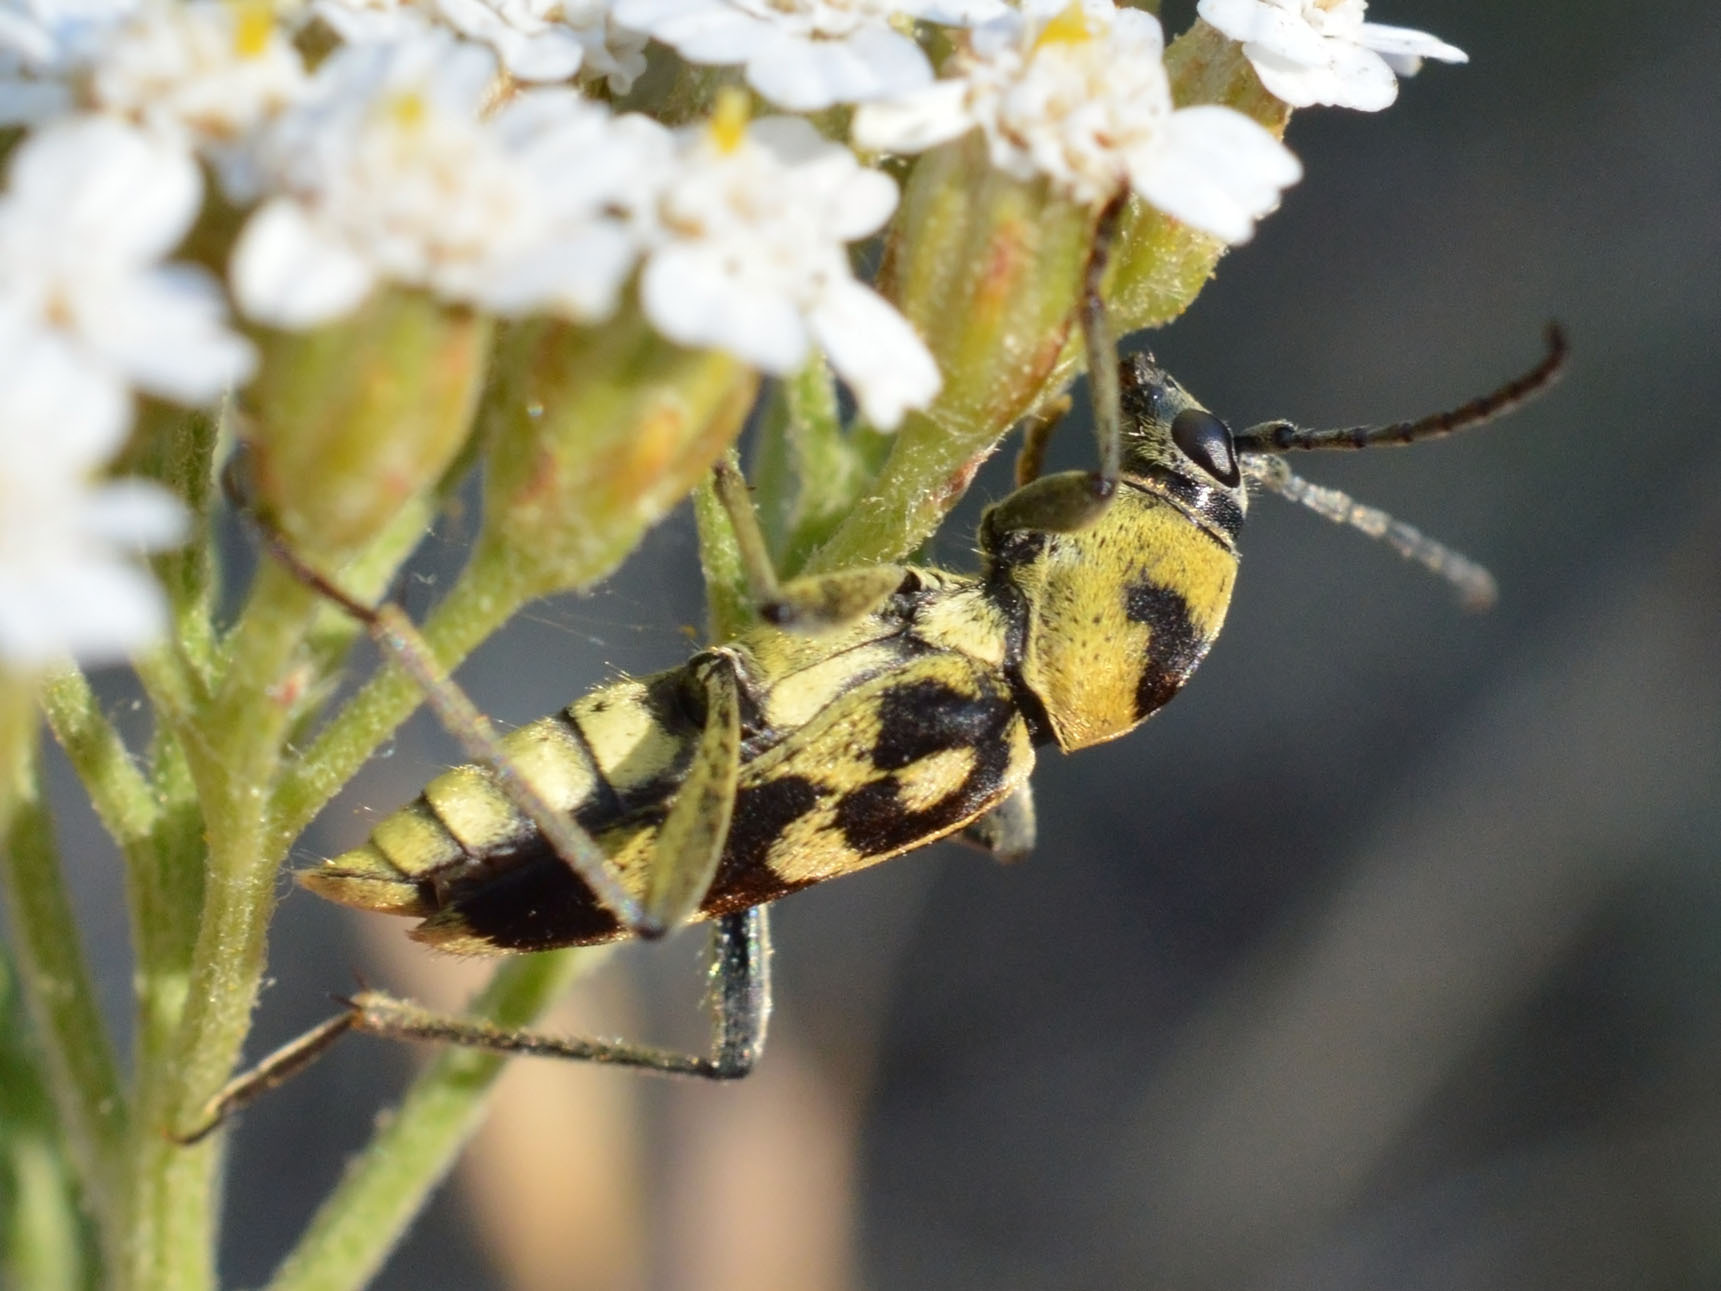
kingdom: Animalia
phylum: Arthropoda
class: Insecta
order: Coleoptera
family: Cerambycidae
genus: Chlorophorus
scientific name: Chlorophorus varius
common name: Grape wood borer
